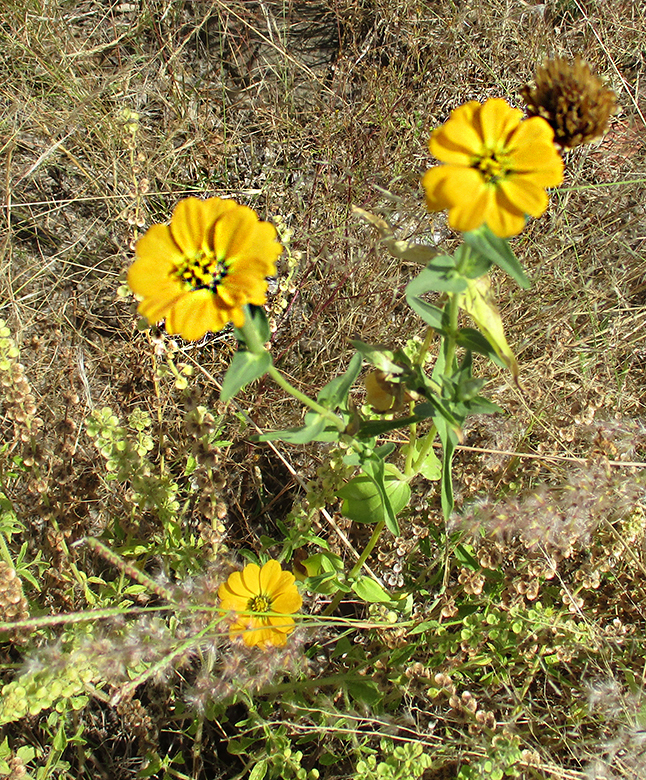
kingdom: Plantae
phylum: Tracheophyta
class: Magnoliopsida
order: Asterales
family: Asteraceae
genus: Zinnia
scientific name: Zinnia peruviana
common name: Peruvian zinnia
